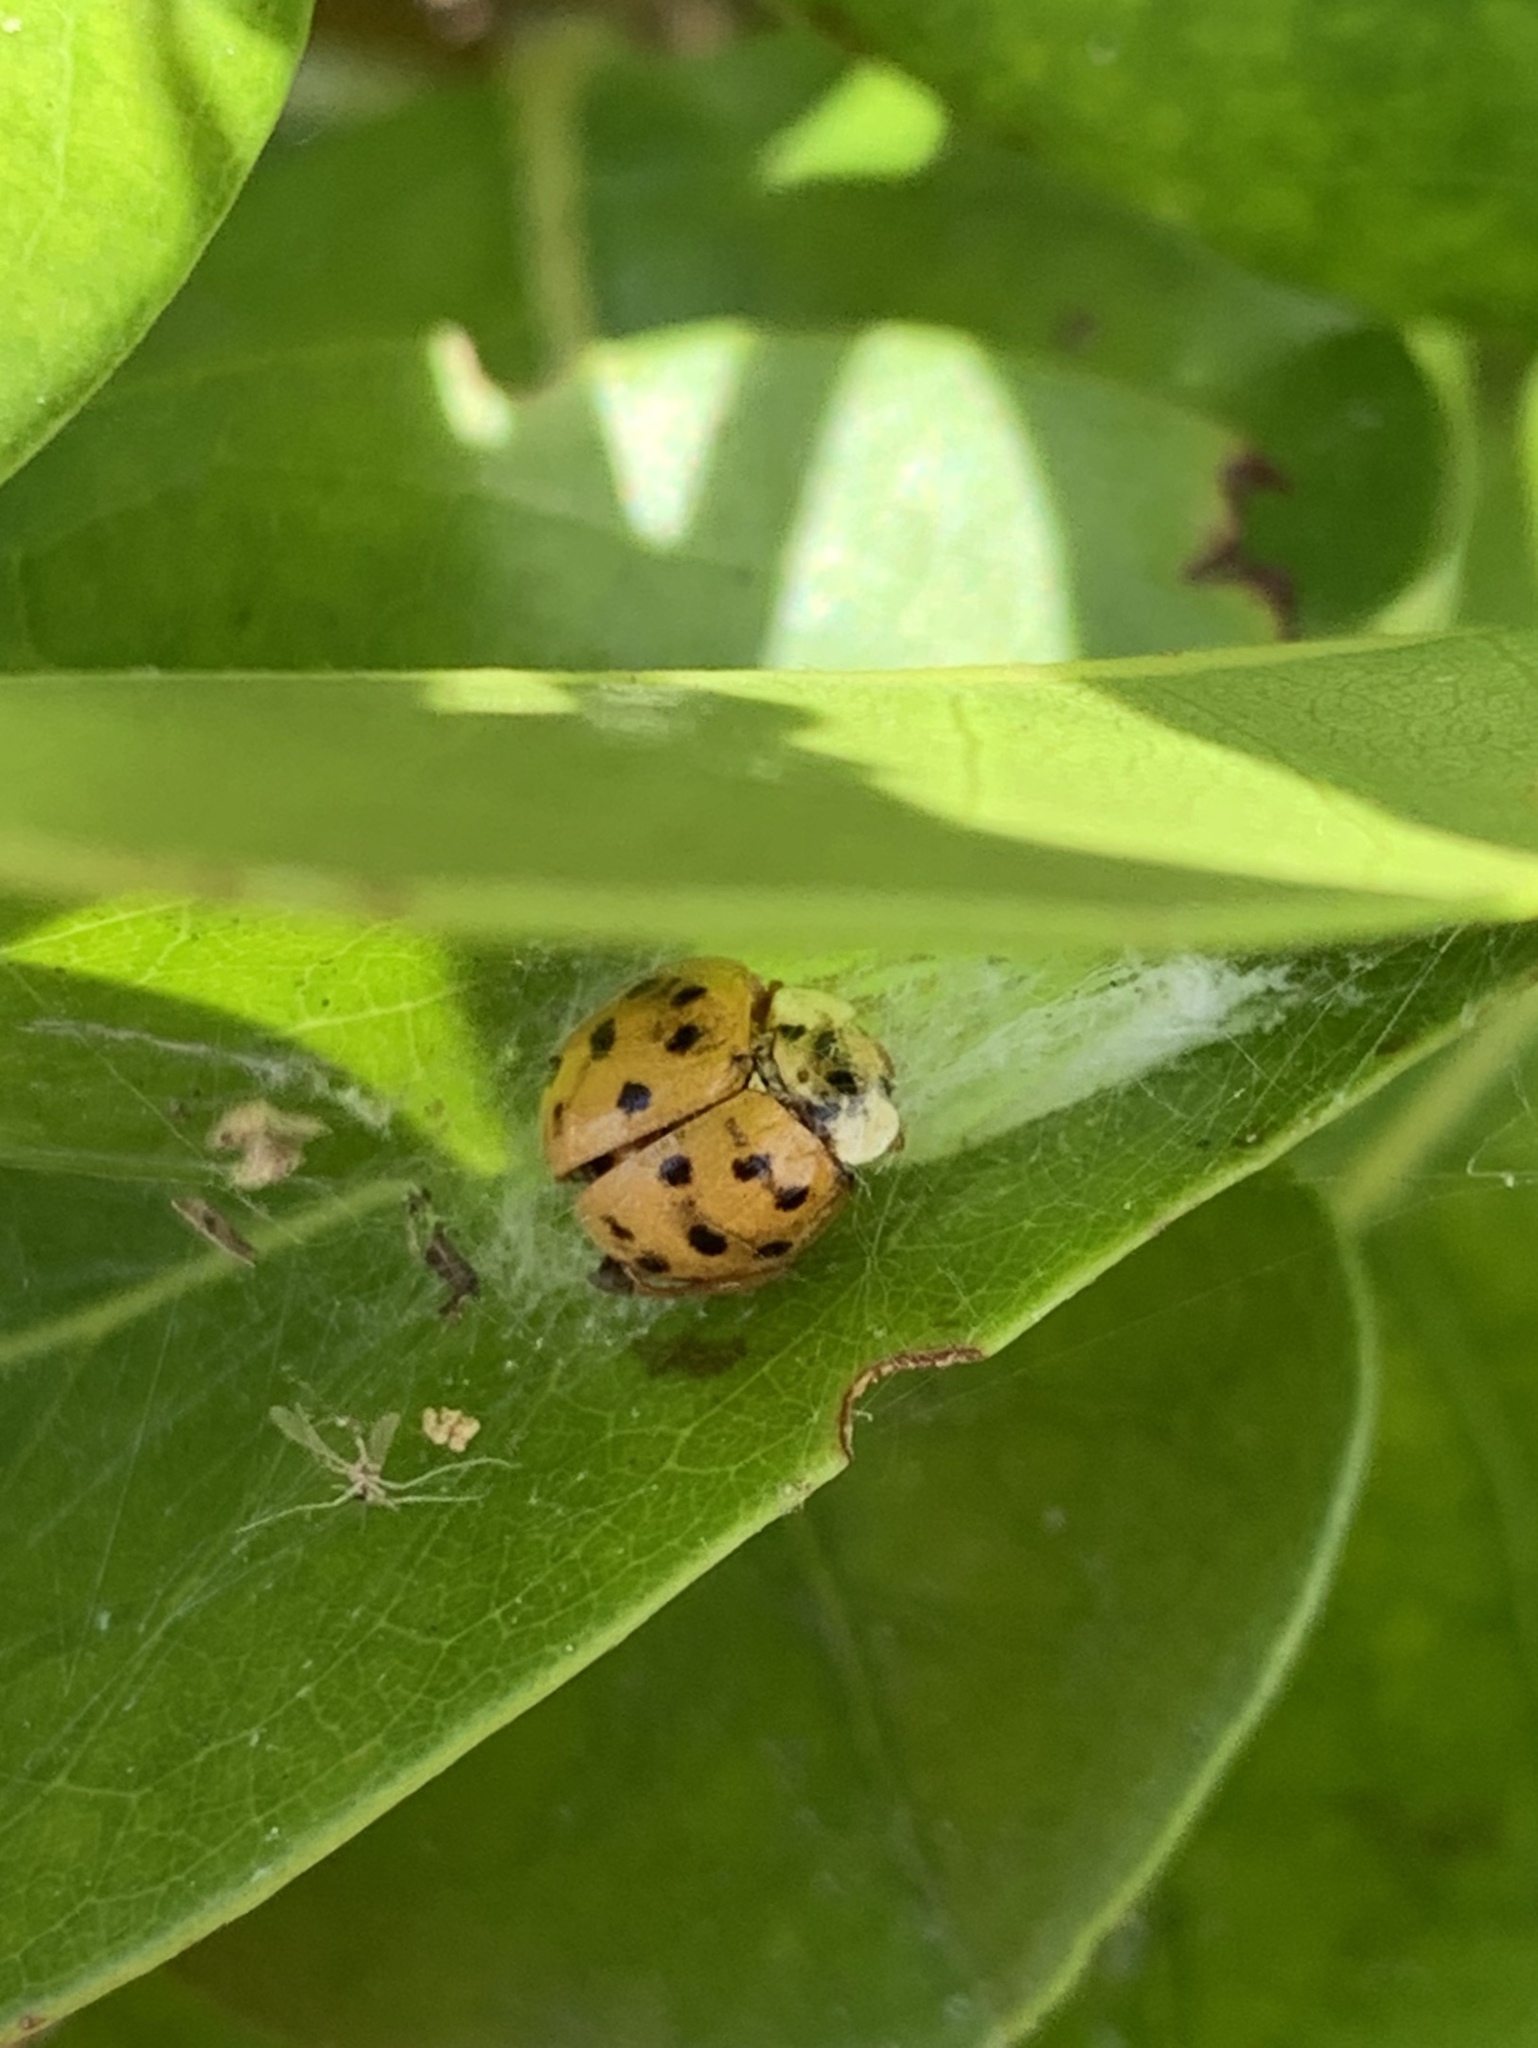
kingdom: Animalia
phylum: Arthropoda
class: Insecta
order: Coleoptera
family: Coccinellidae
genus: Harmonia
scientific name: Harmonia axyridis
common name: Harlequin ladybird
